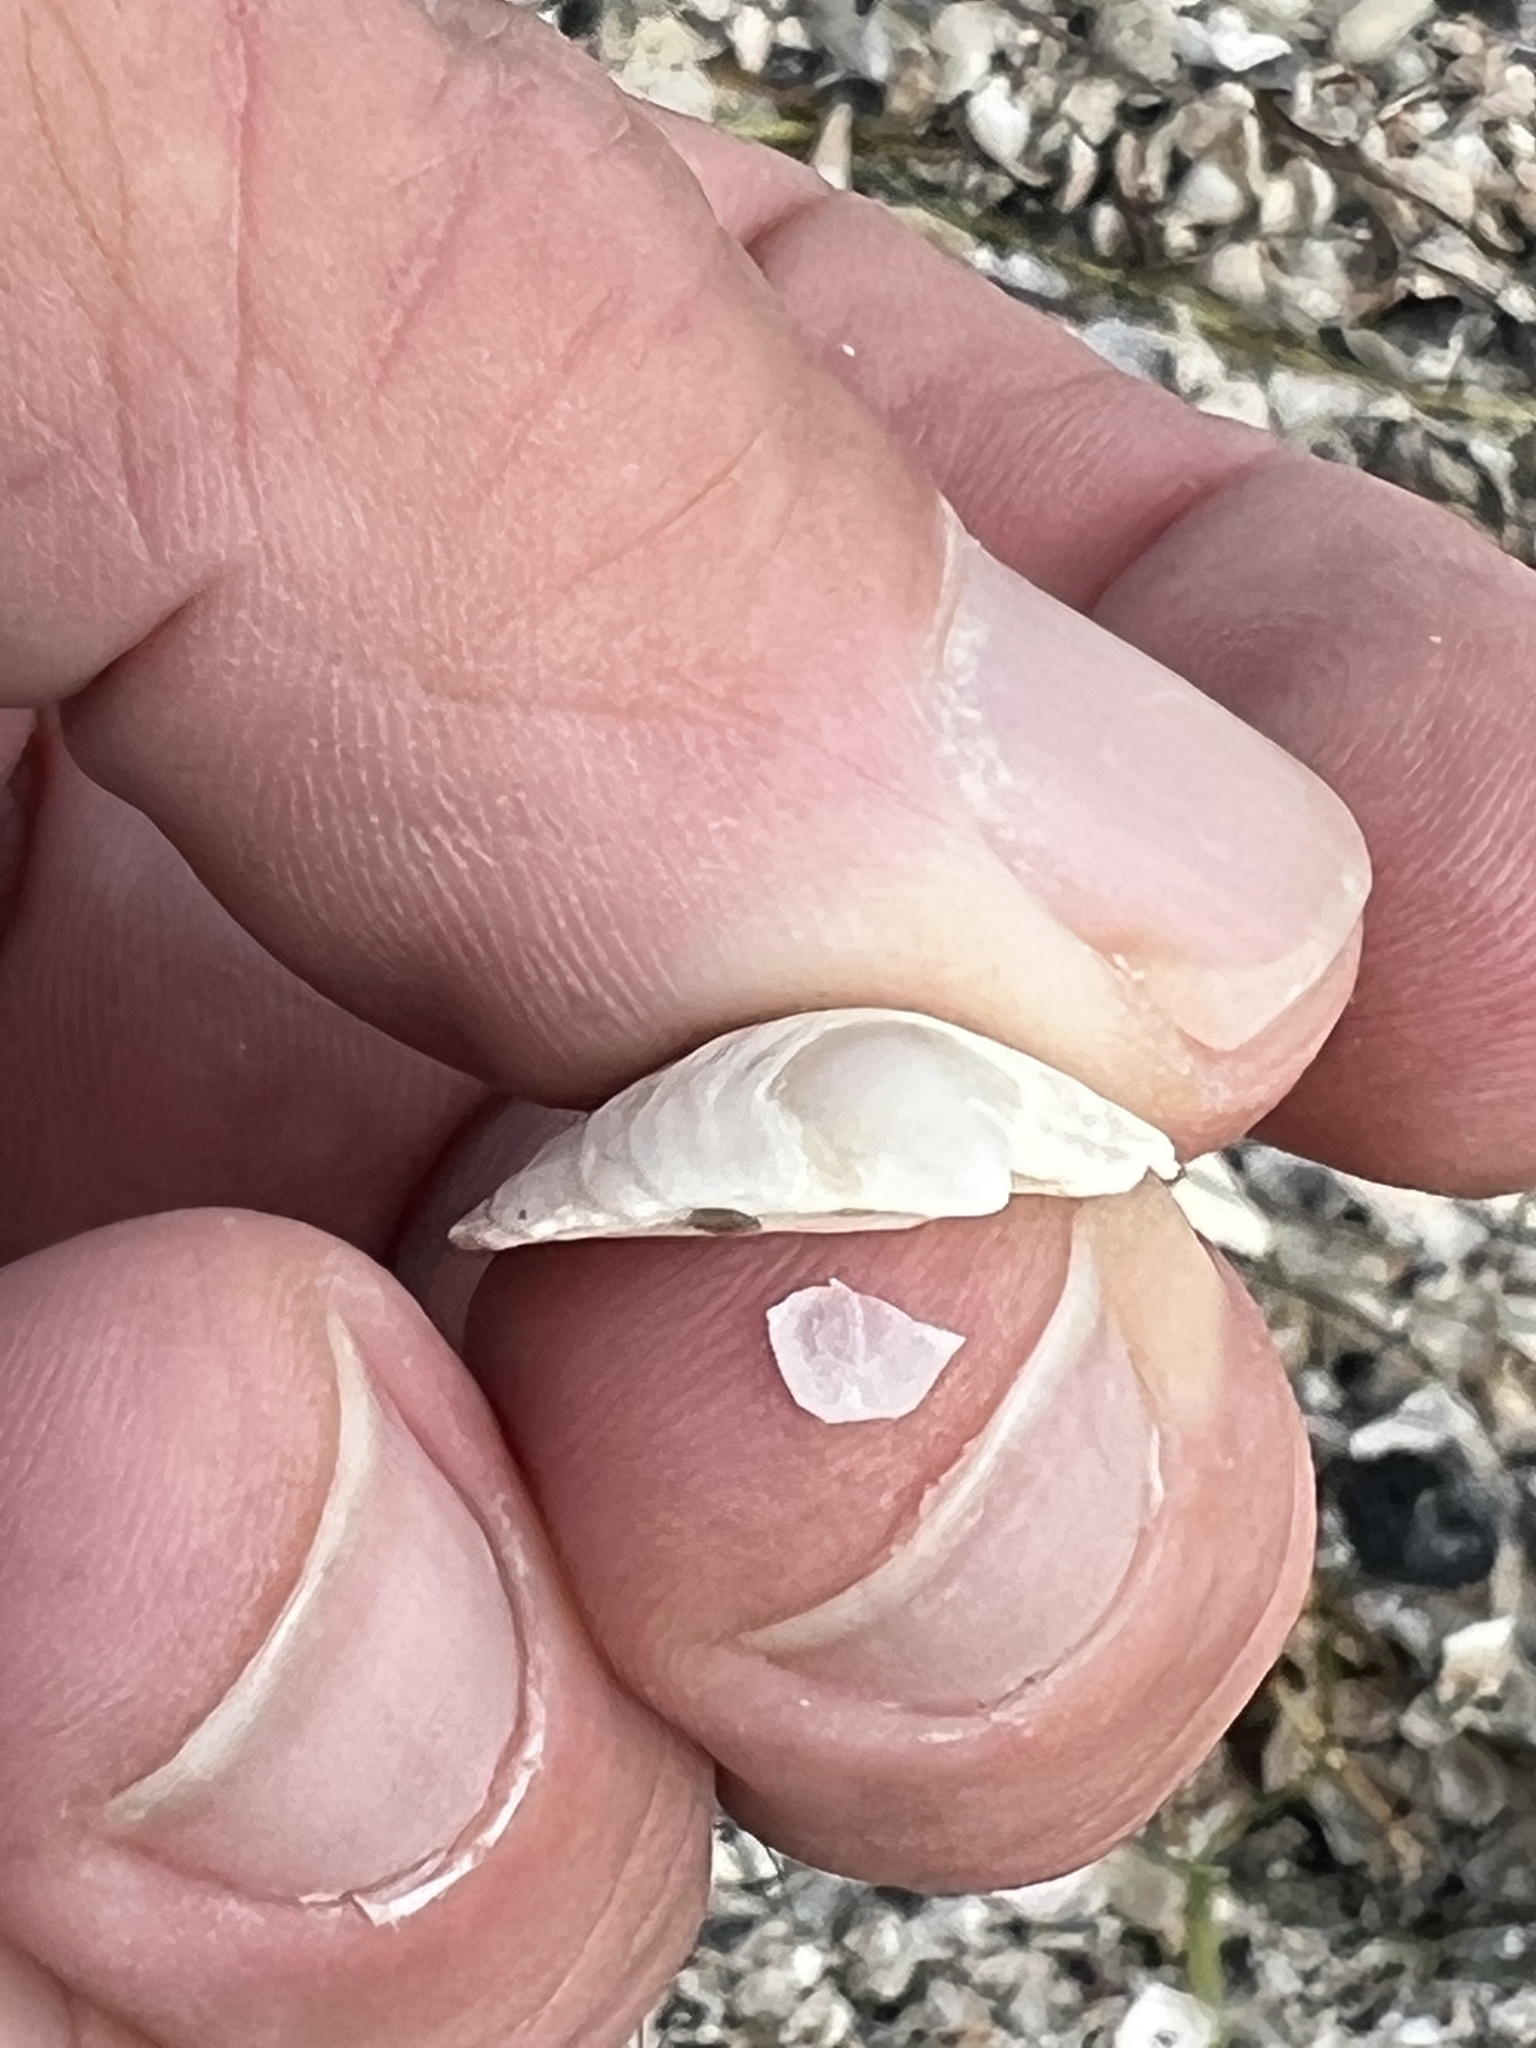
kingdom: Animalia
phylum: Mollusca
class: Bivalvia
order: Lucinida
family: Lucinidae
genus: Phacoides
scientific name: Phacoides pectinatus
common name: Thick lucine
